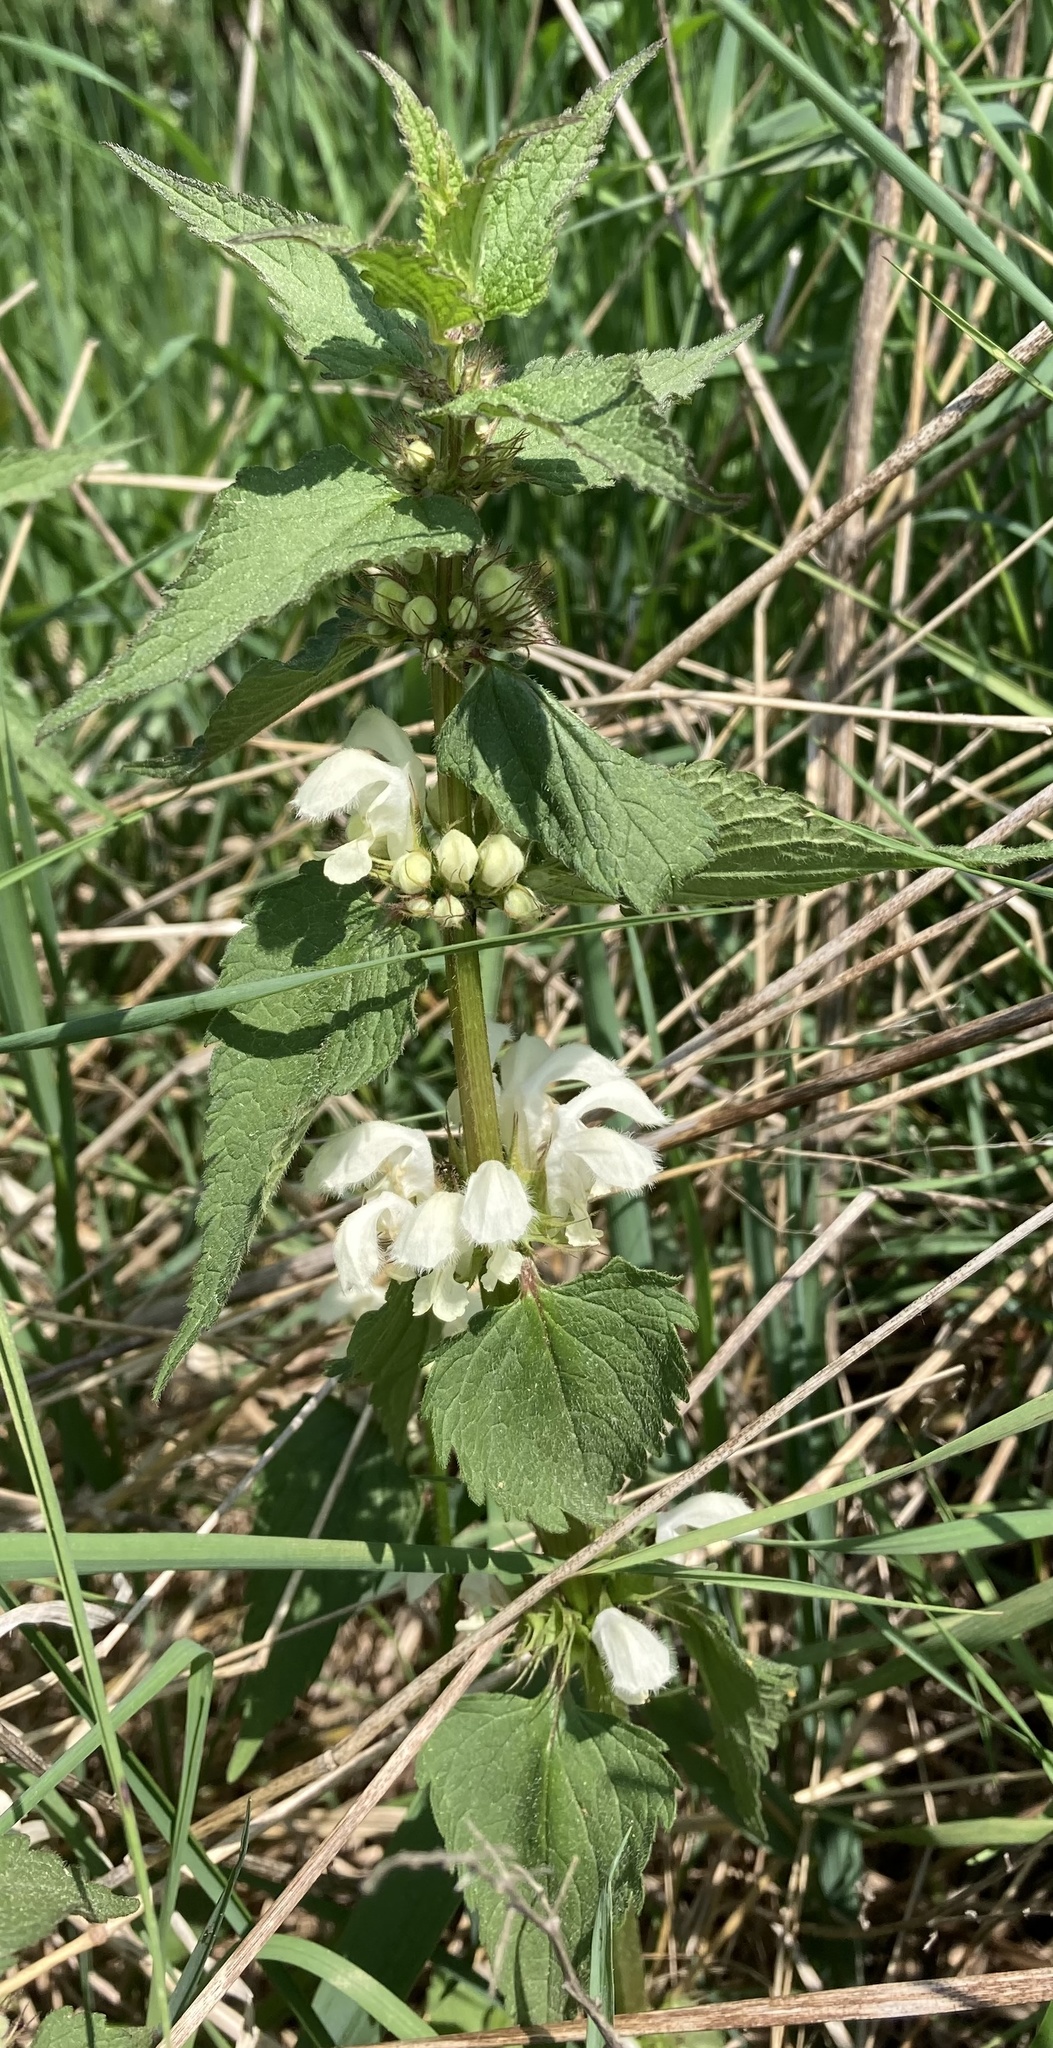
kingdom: Plantae
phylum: Tracheophyta
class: Magnoliopsida
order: Lamiales
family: Lamiaceae
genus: Lamium
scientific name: Lamium album
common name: White dead-nettle
